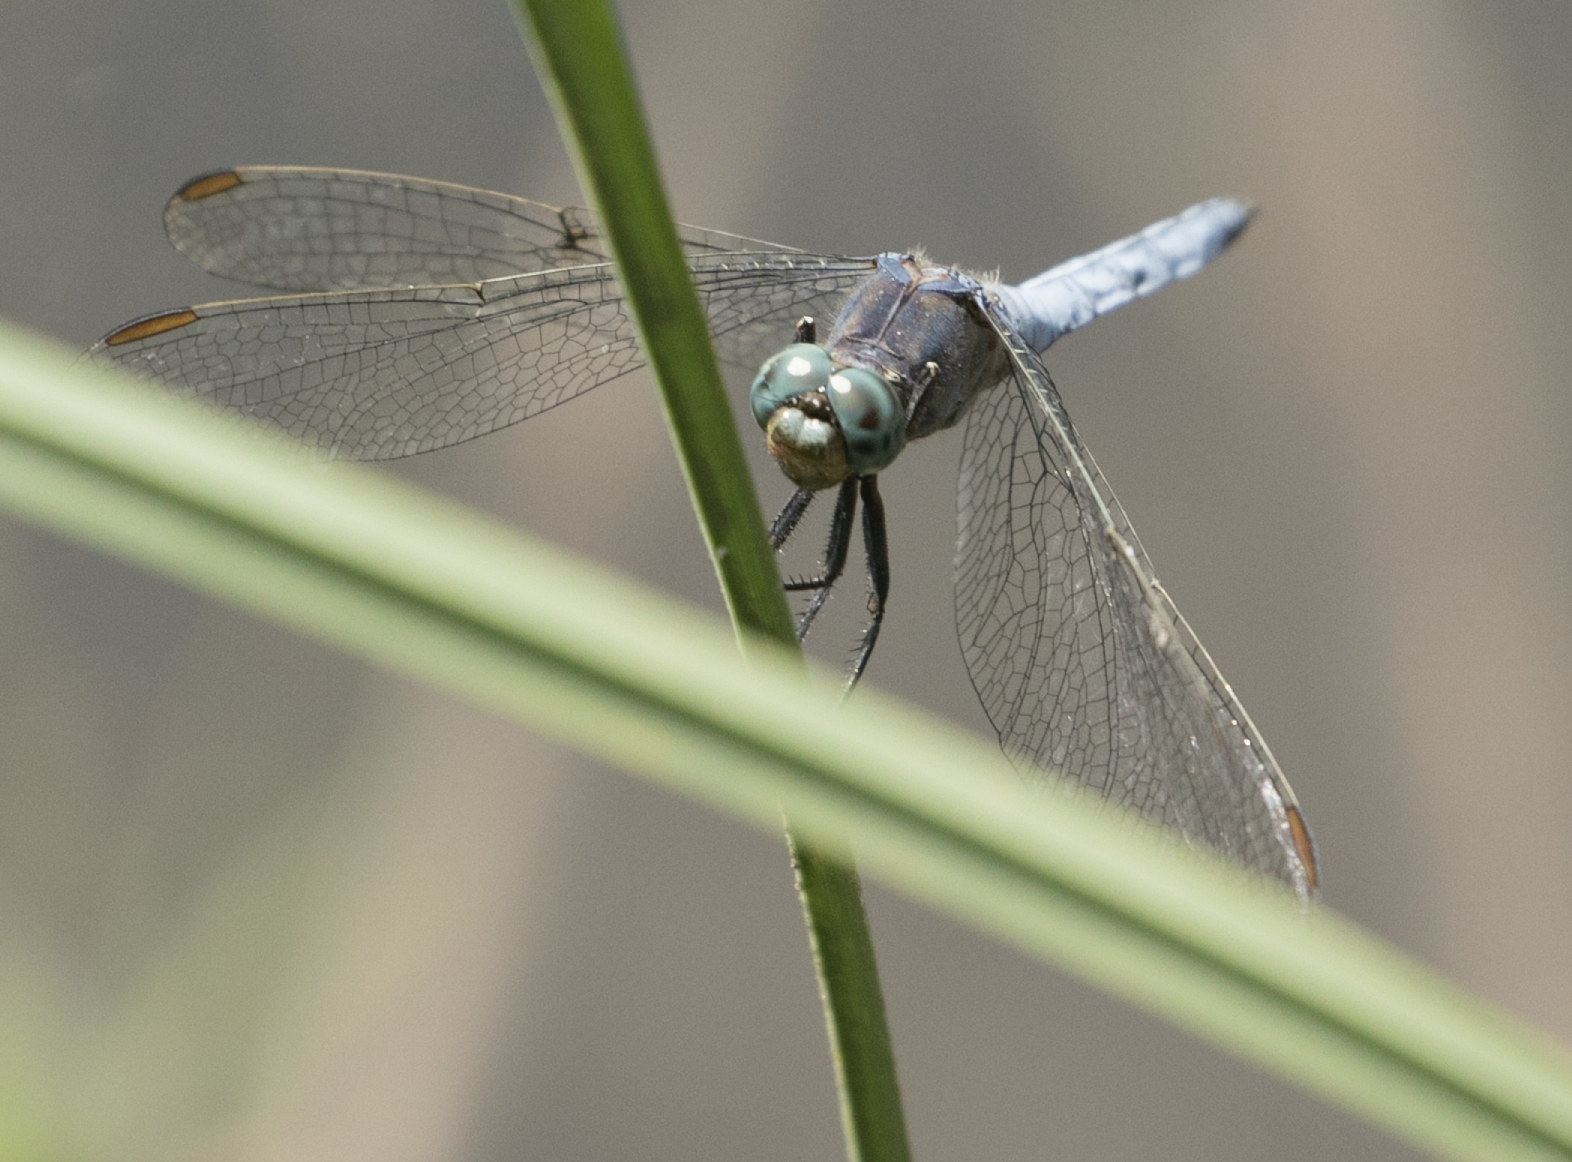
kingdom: Animalia
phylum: Arthropoda
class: Insecta
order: Odonata
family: Libellulidae
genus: Orthetrum
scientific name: Orthetrum coerulescens
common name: Keeled skimmer
